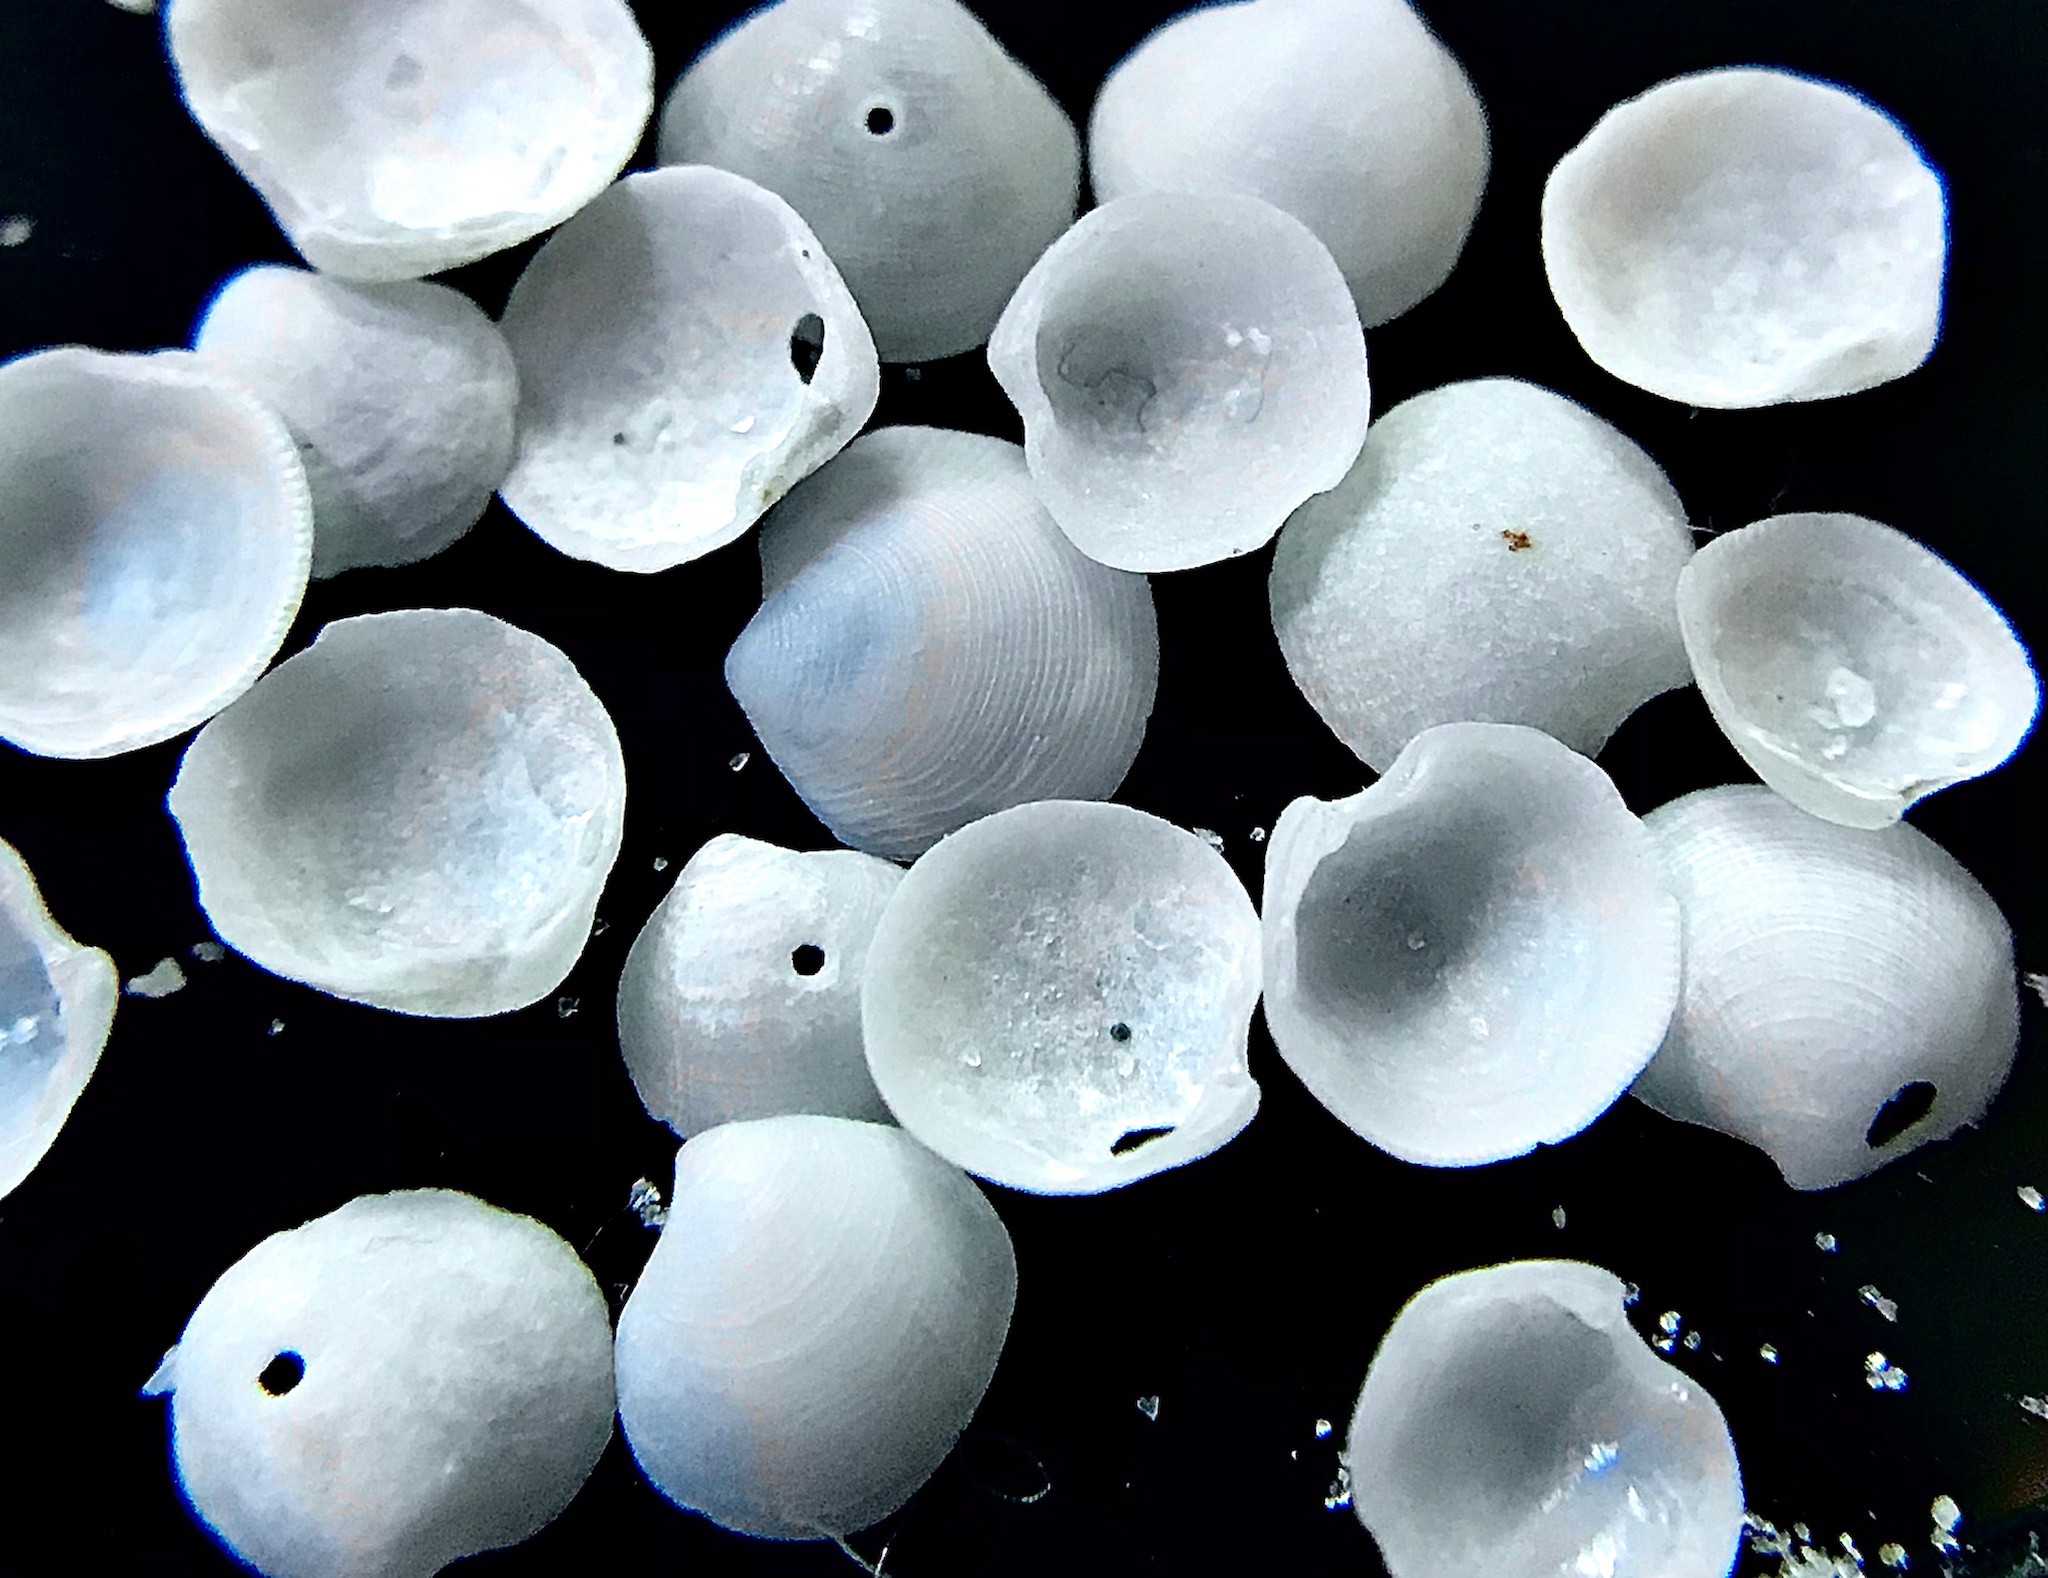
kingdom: Animalia
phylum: Mollusca
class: Bivalvia
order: Lucinida
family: Lucinidae
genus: Parvilucina
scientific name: Parvilucina crenella
